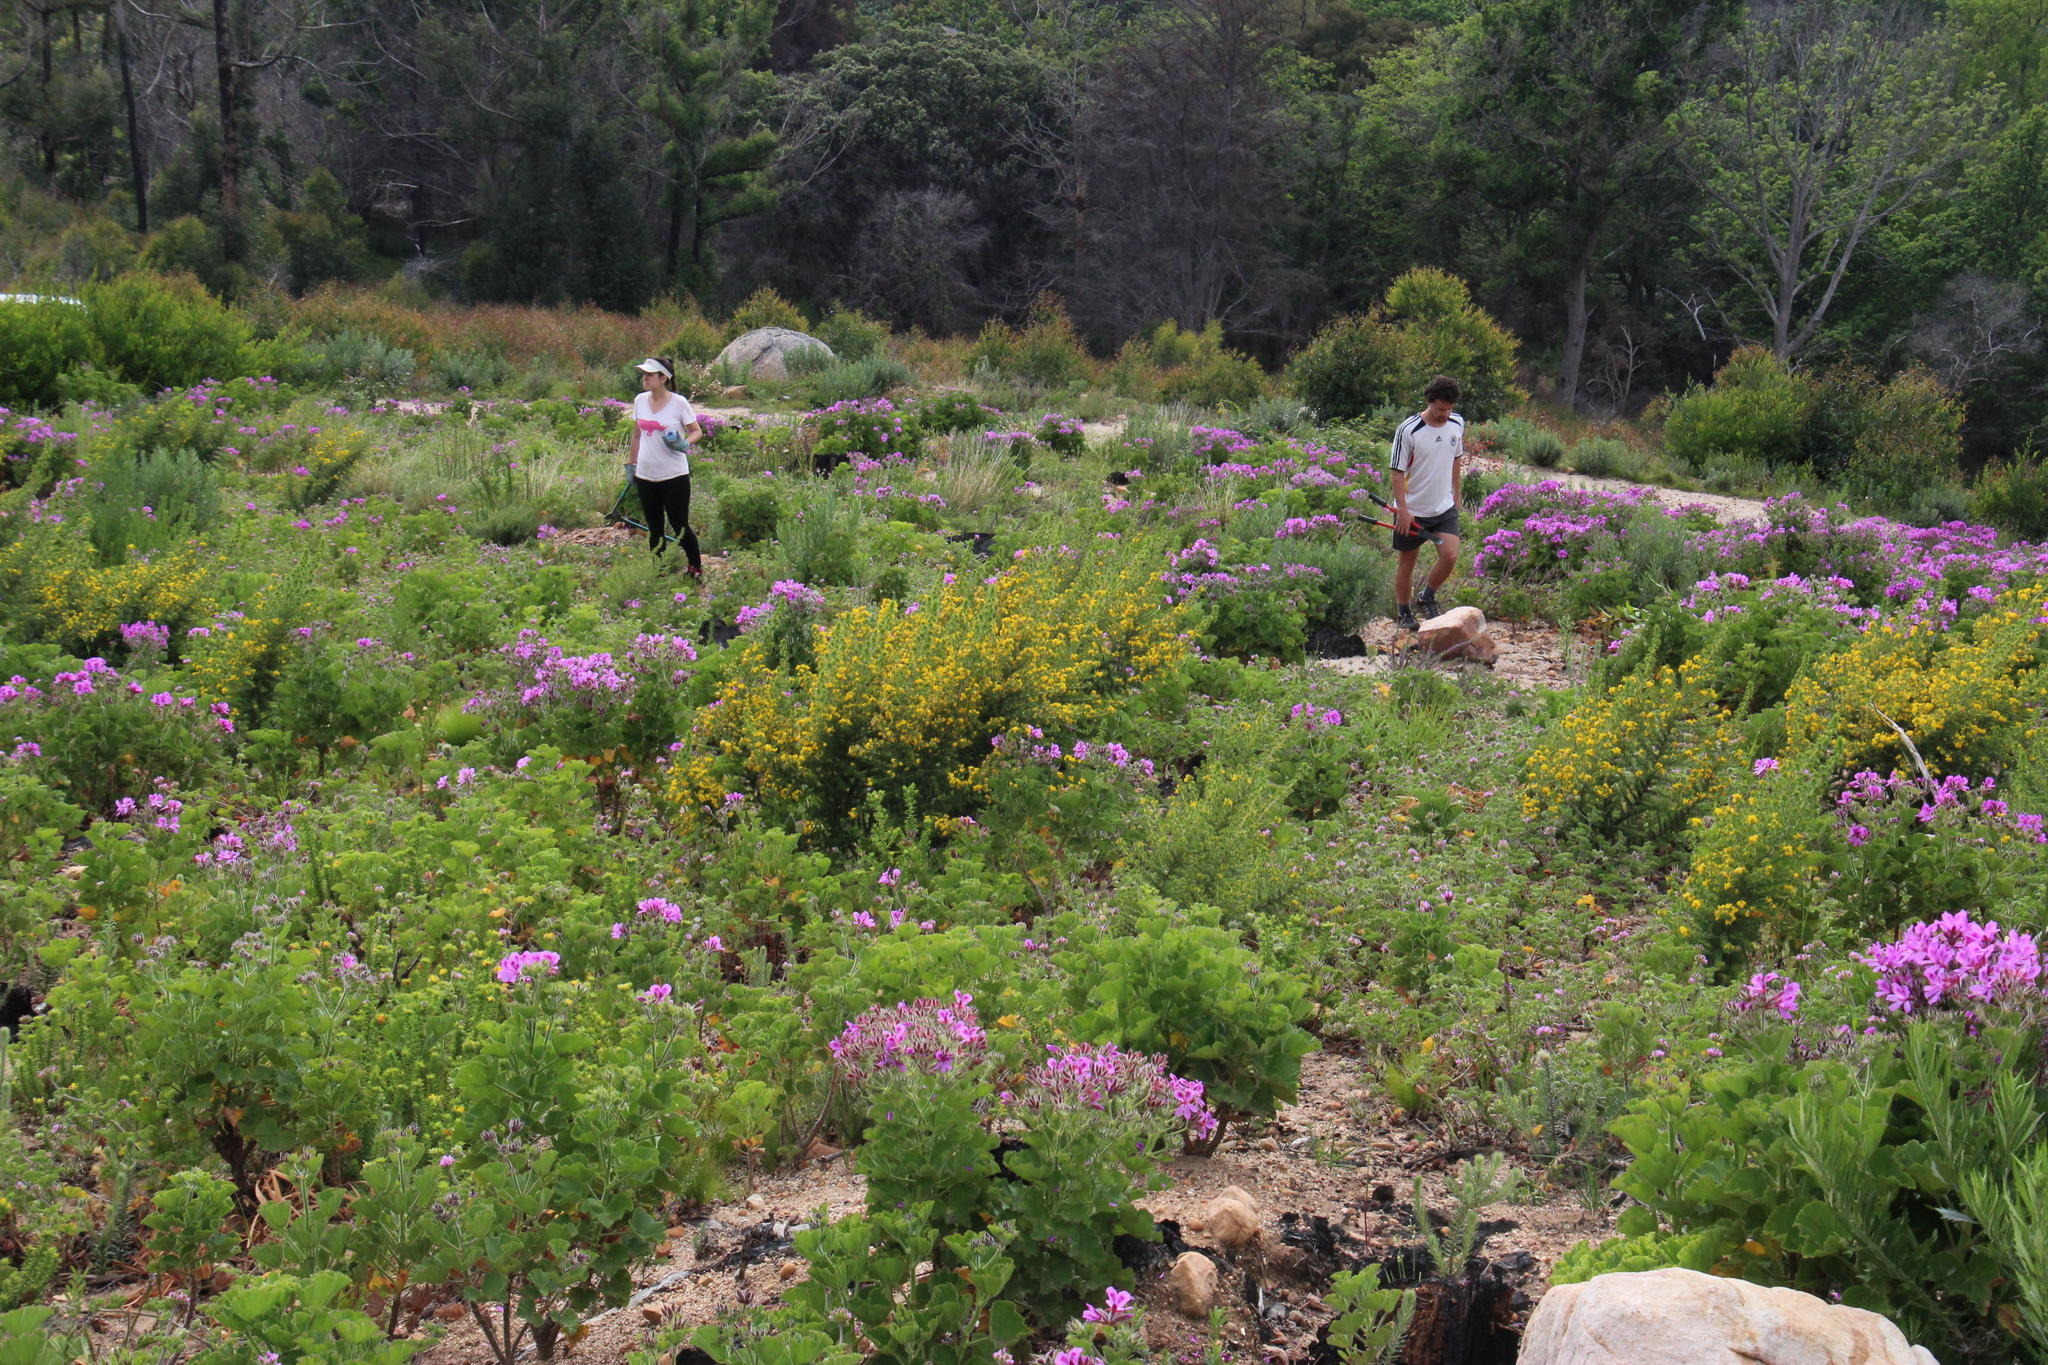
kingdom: Plantae
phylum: Tracheophyta
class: Magnoliopsida
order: Fabales
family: Fabaceae
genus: Aspalathus
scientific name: Aspalathus astroites
